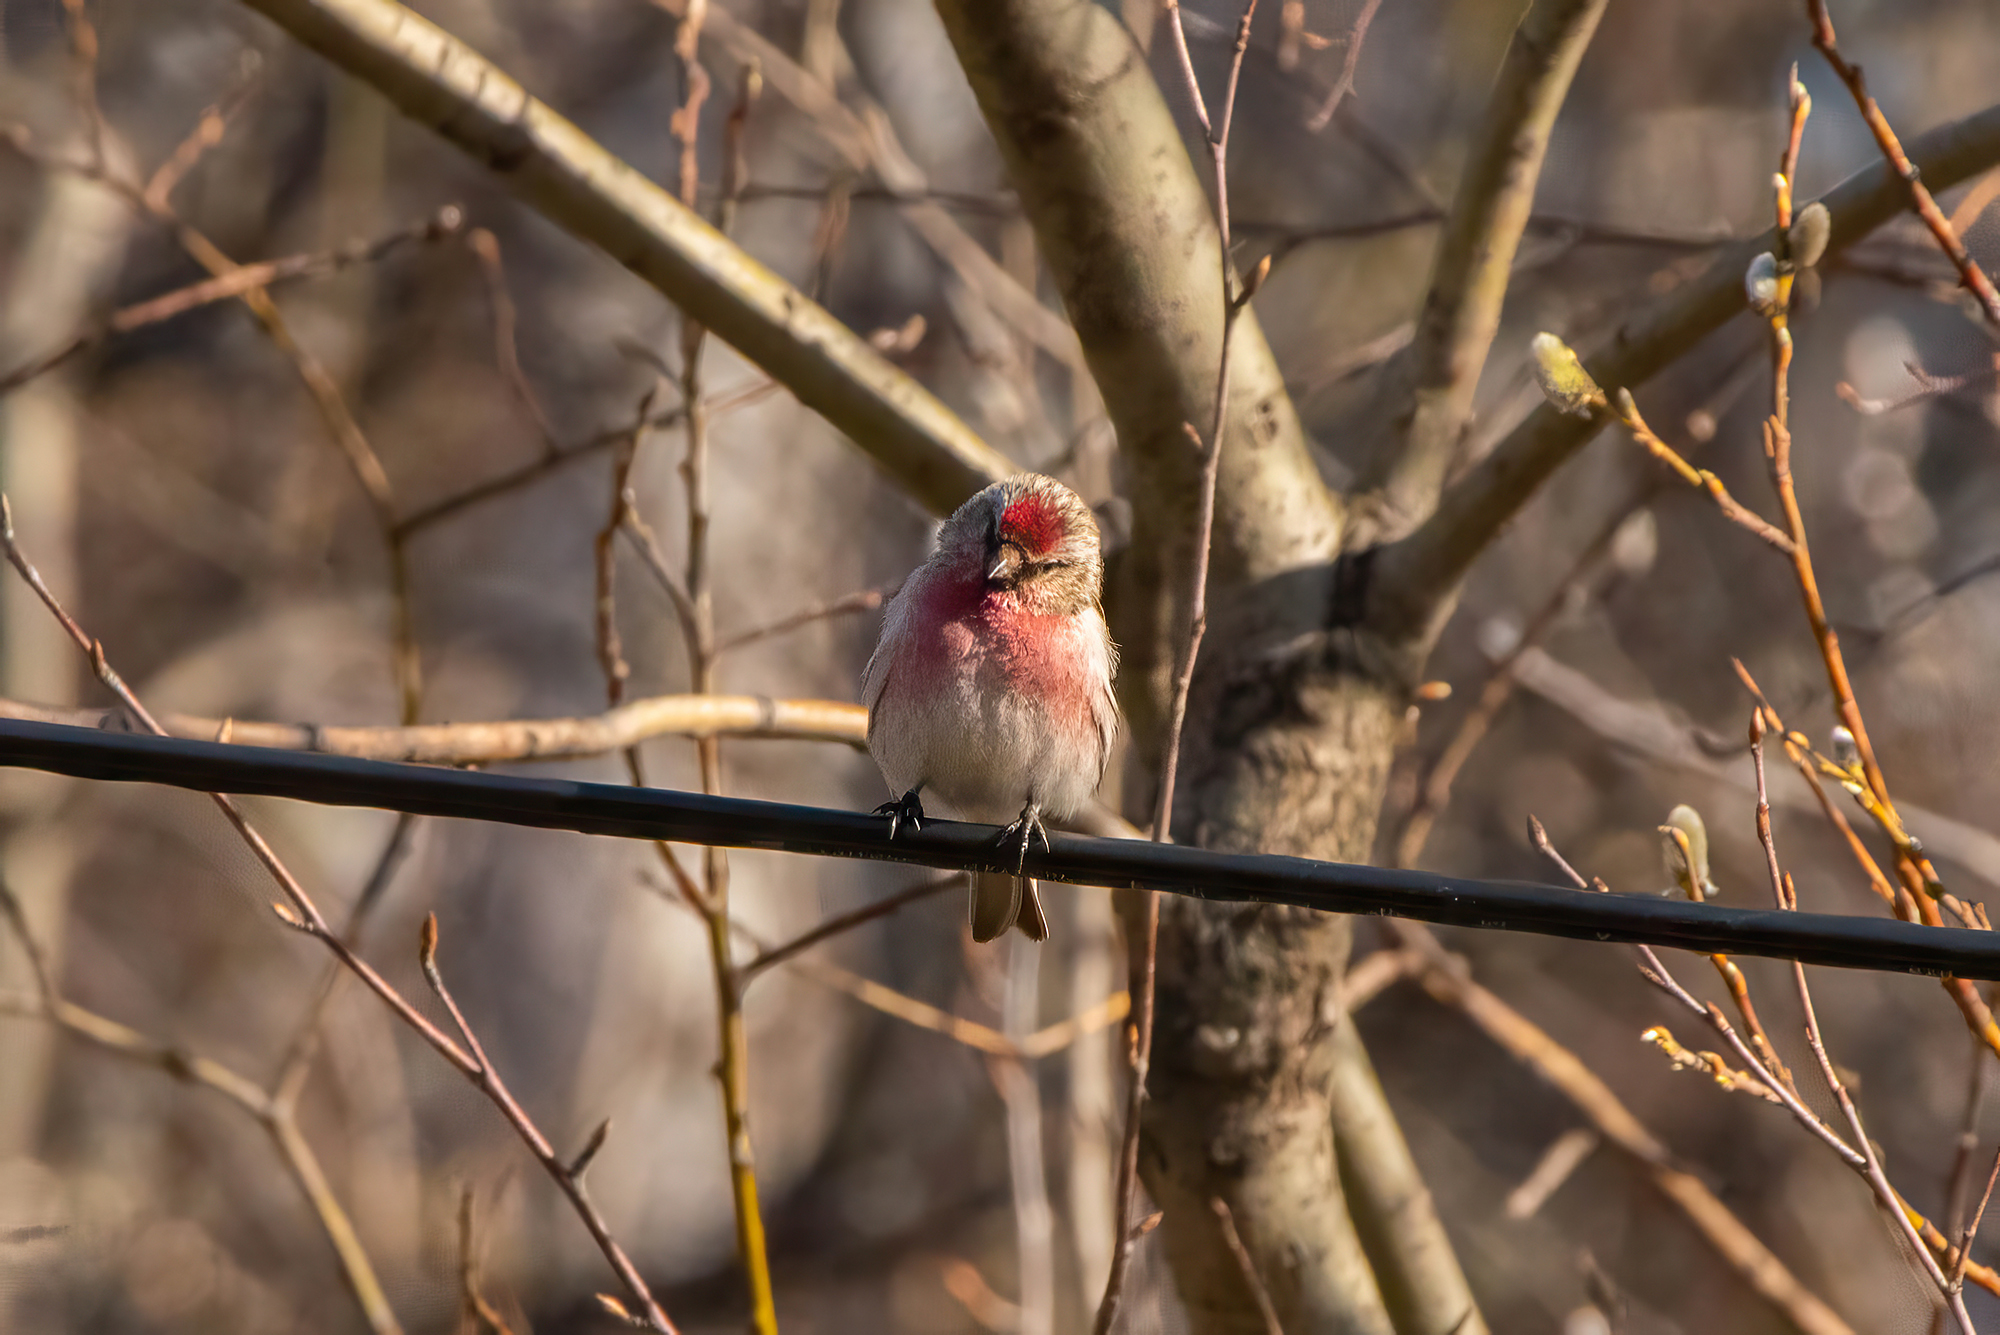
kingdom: Animalia
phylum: Chordata
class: Aves
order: Passeriformes
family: Fringillidae
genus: Acanthis
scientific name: Acanthis flammea
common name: Common redpoll
